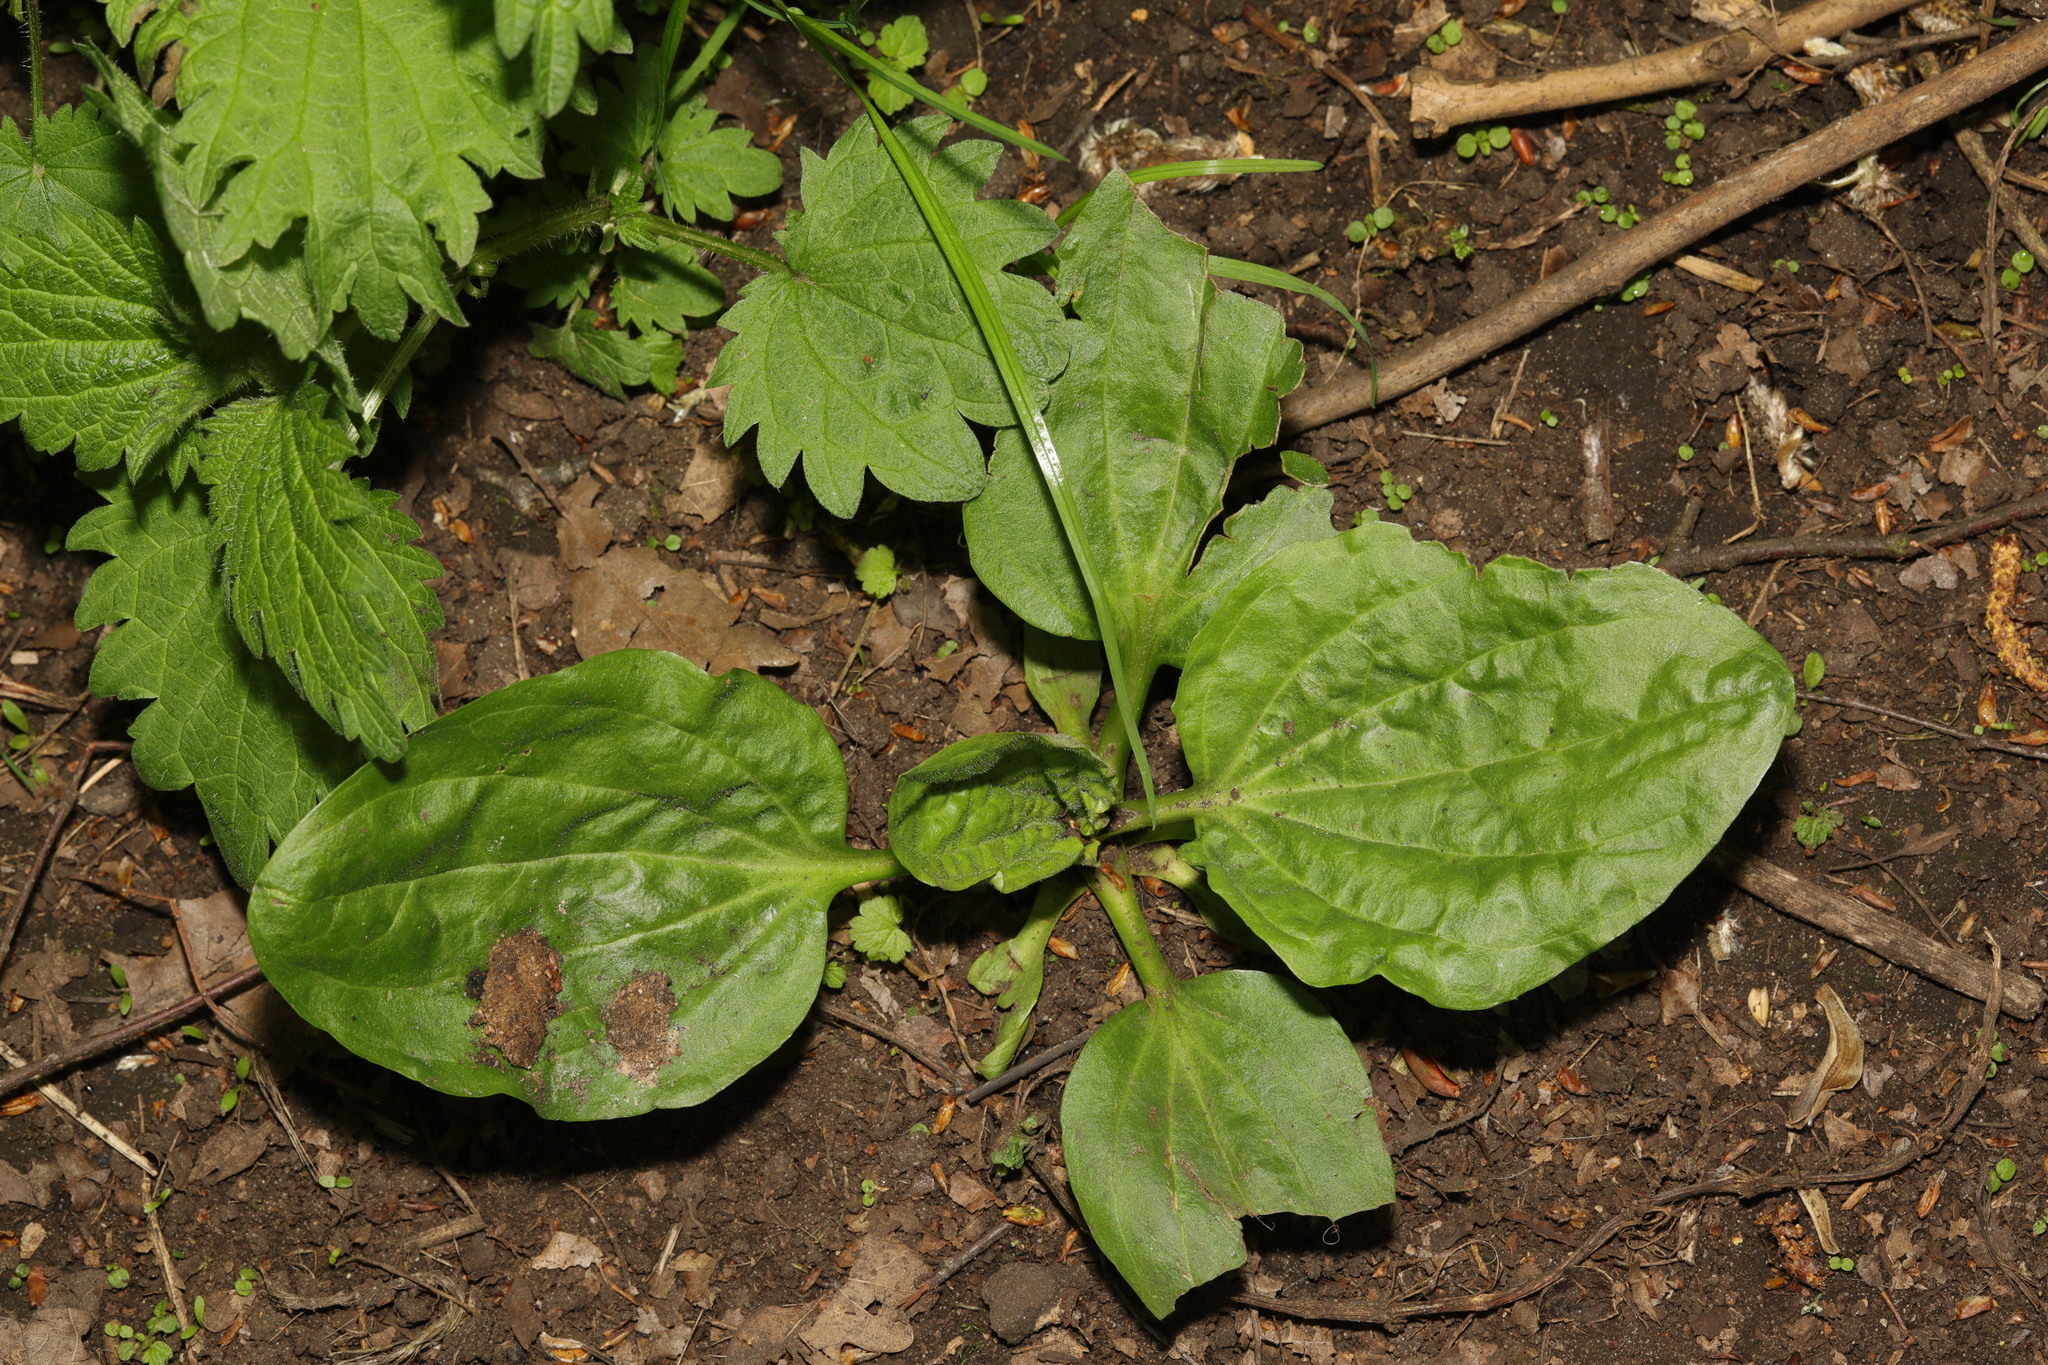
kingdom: Plantae
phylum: Tracheophyta
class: Magnoliopsida
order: Lamiales
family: Plantaginaceae
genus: Plantago
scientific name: Plantago major
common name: Common plantain
